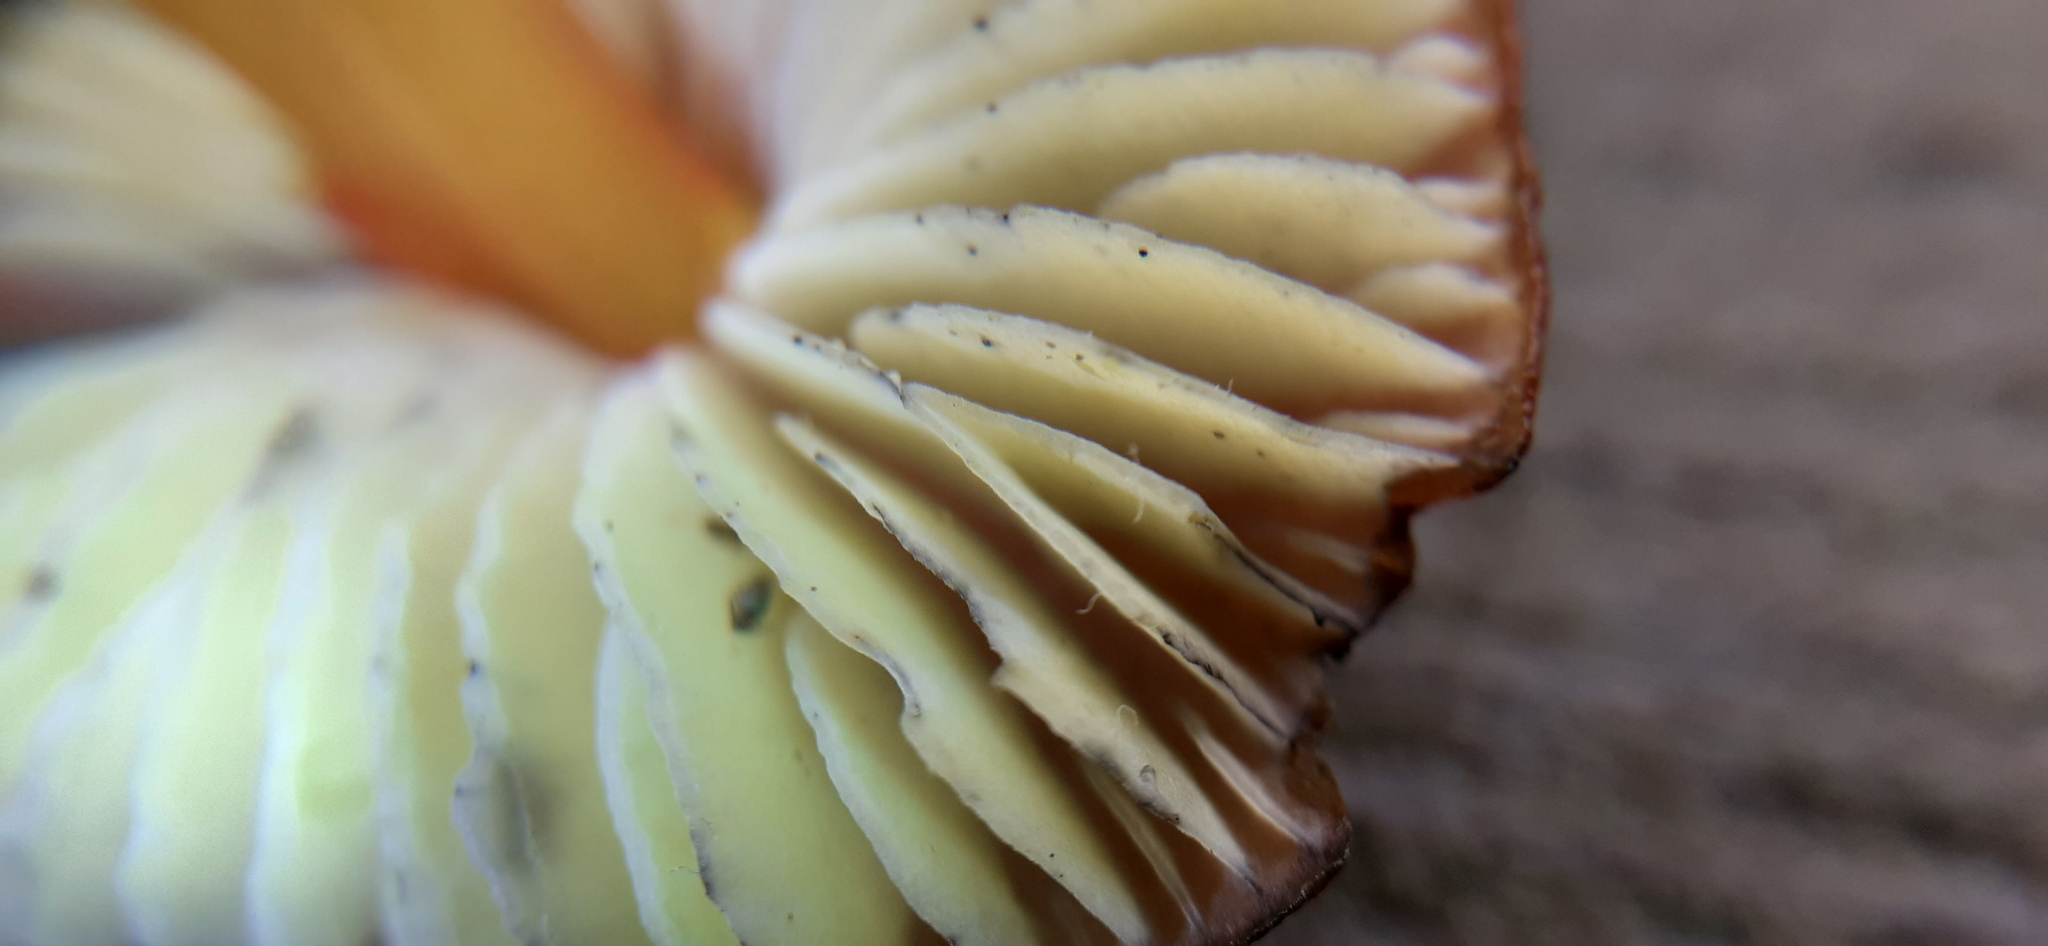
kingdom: Fungi
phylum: Basidiomycota
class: Agaricomycetes
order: Agaricales
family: Hygrophoraceae
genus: Hygrocybe
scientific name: Hygrocybe conica
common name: Blackening wax-cap
